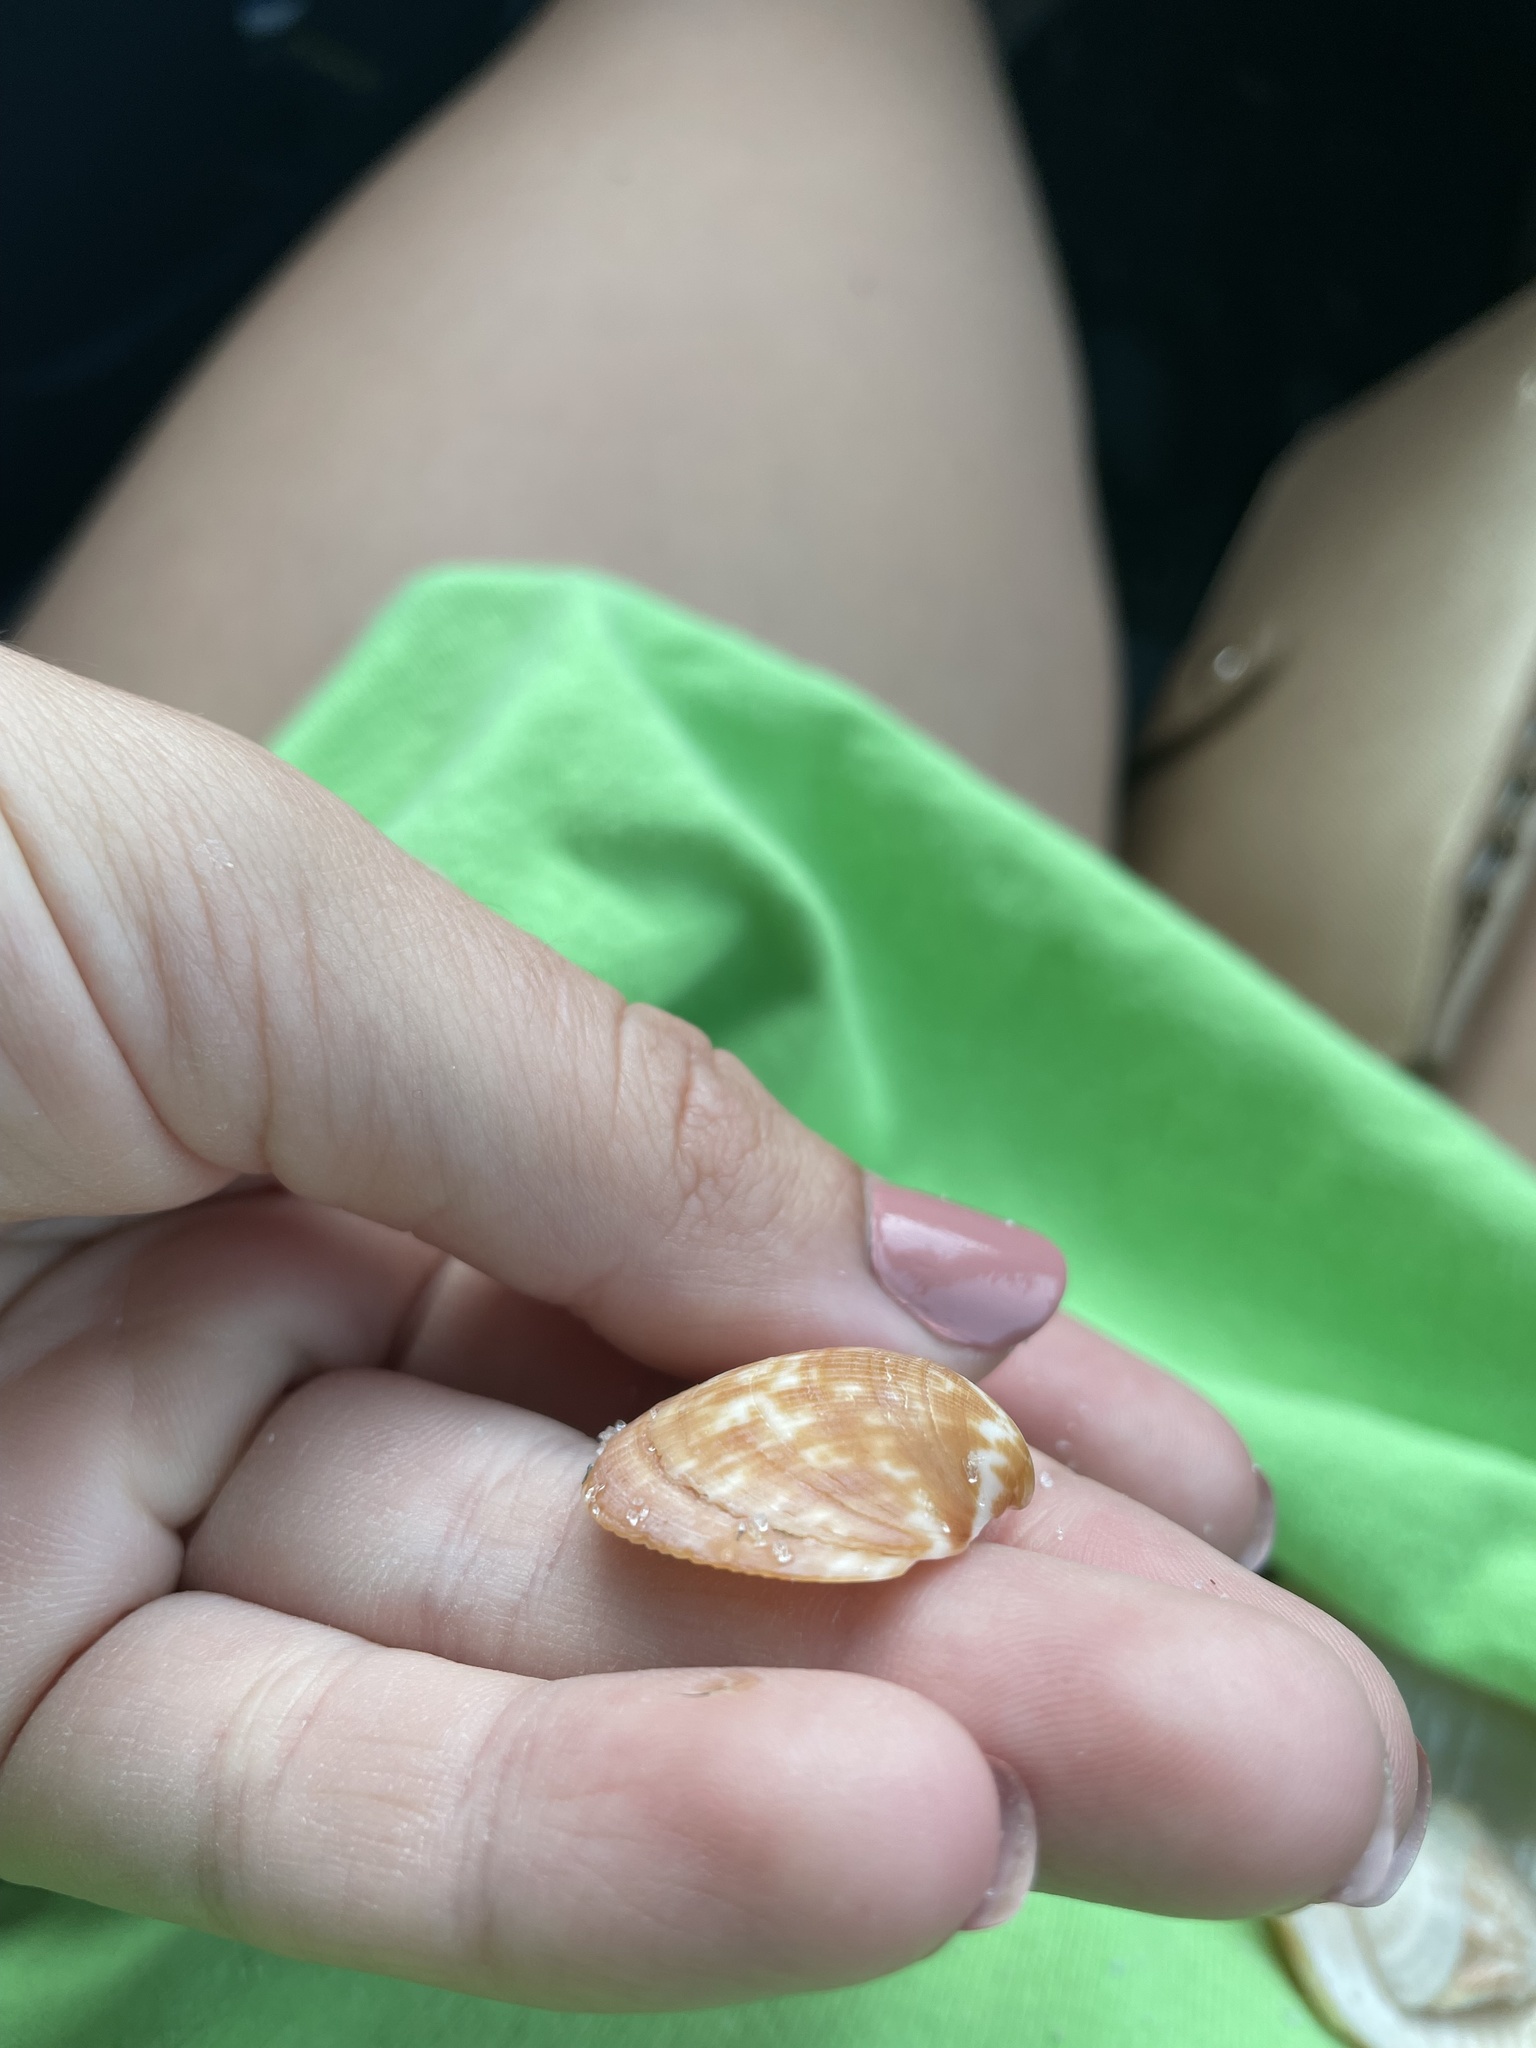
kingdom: Animalia
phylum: Mollusca
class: Bivalvia
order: Arcida
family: Glycymerididae
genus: Glycymeris
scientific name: Glycymeris americana
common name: American bittersweet
